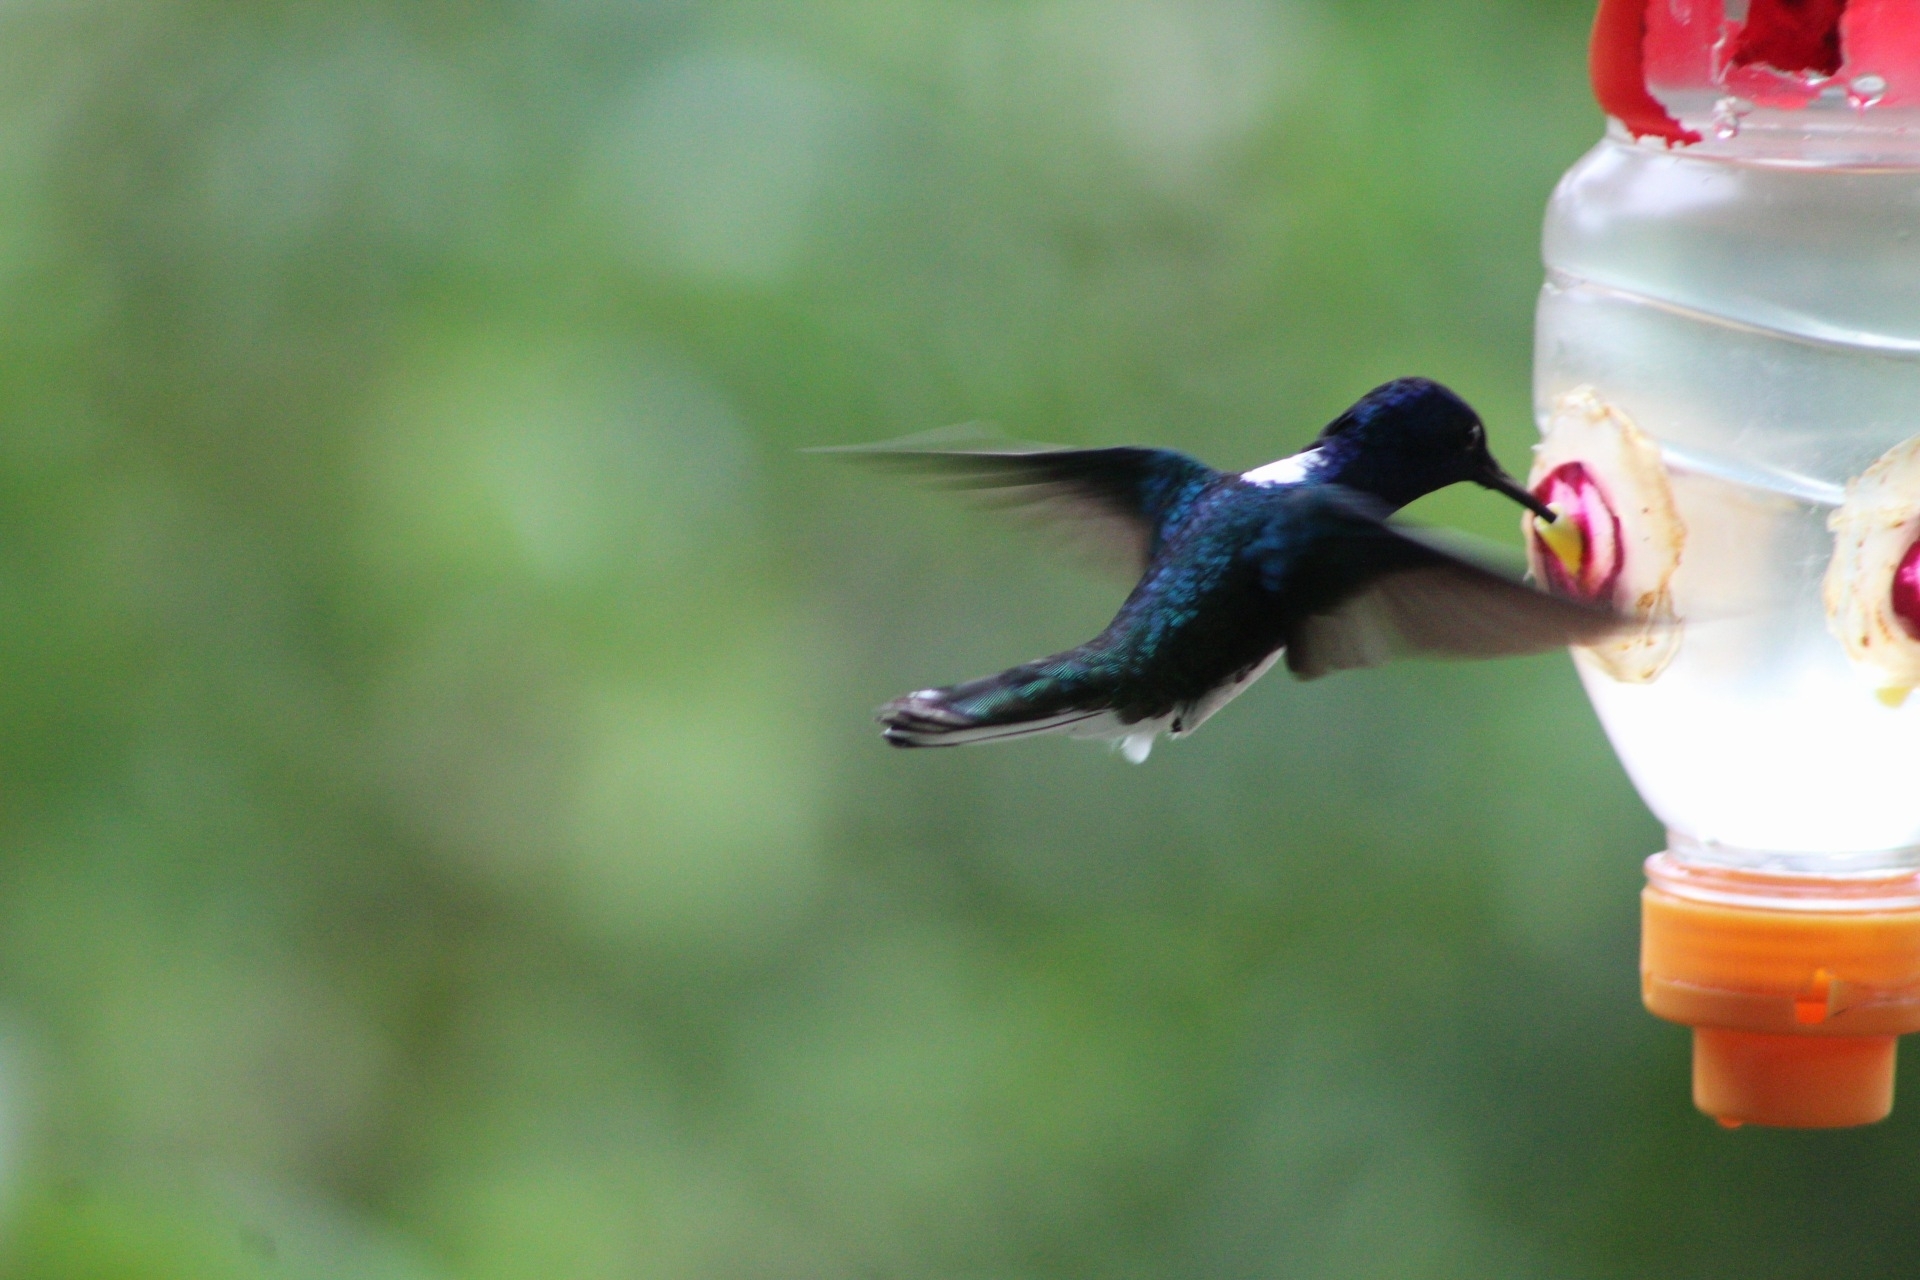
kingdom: Animalia
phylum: Chordata
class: Aves
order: Apodiformes
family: Trochilidae
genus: Florisuga
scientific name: Florisuga mellivora
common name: White-necked jacobin
